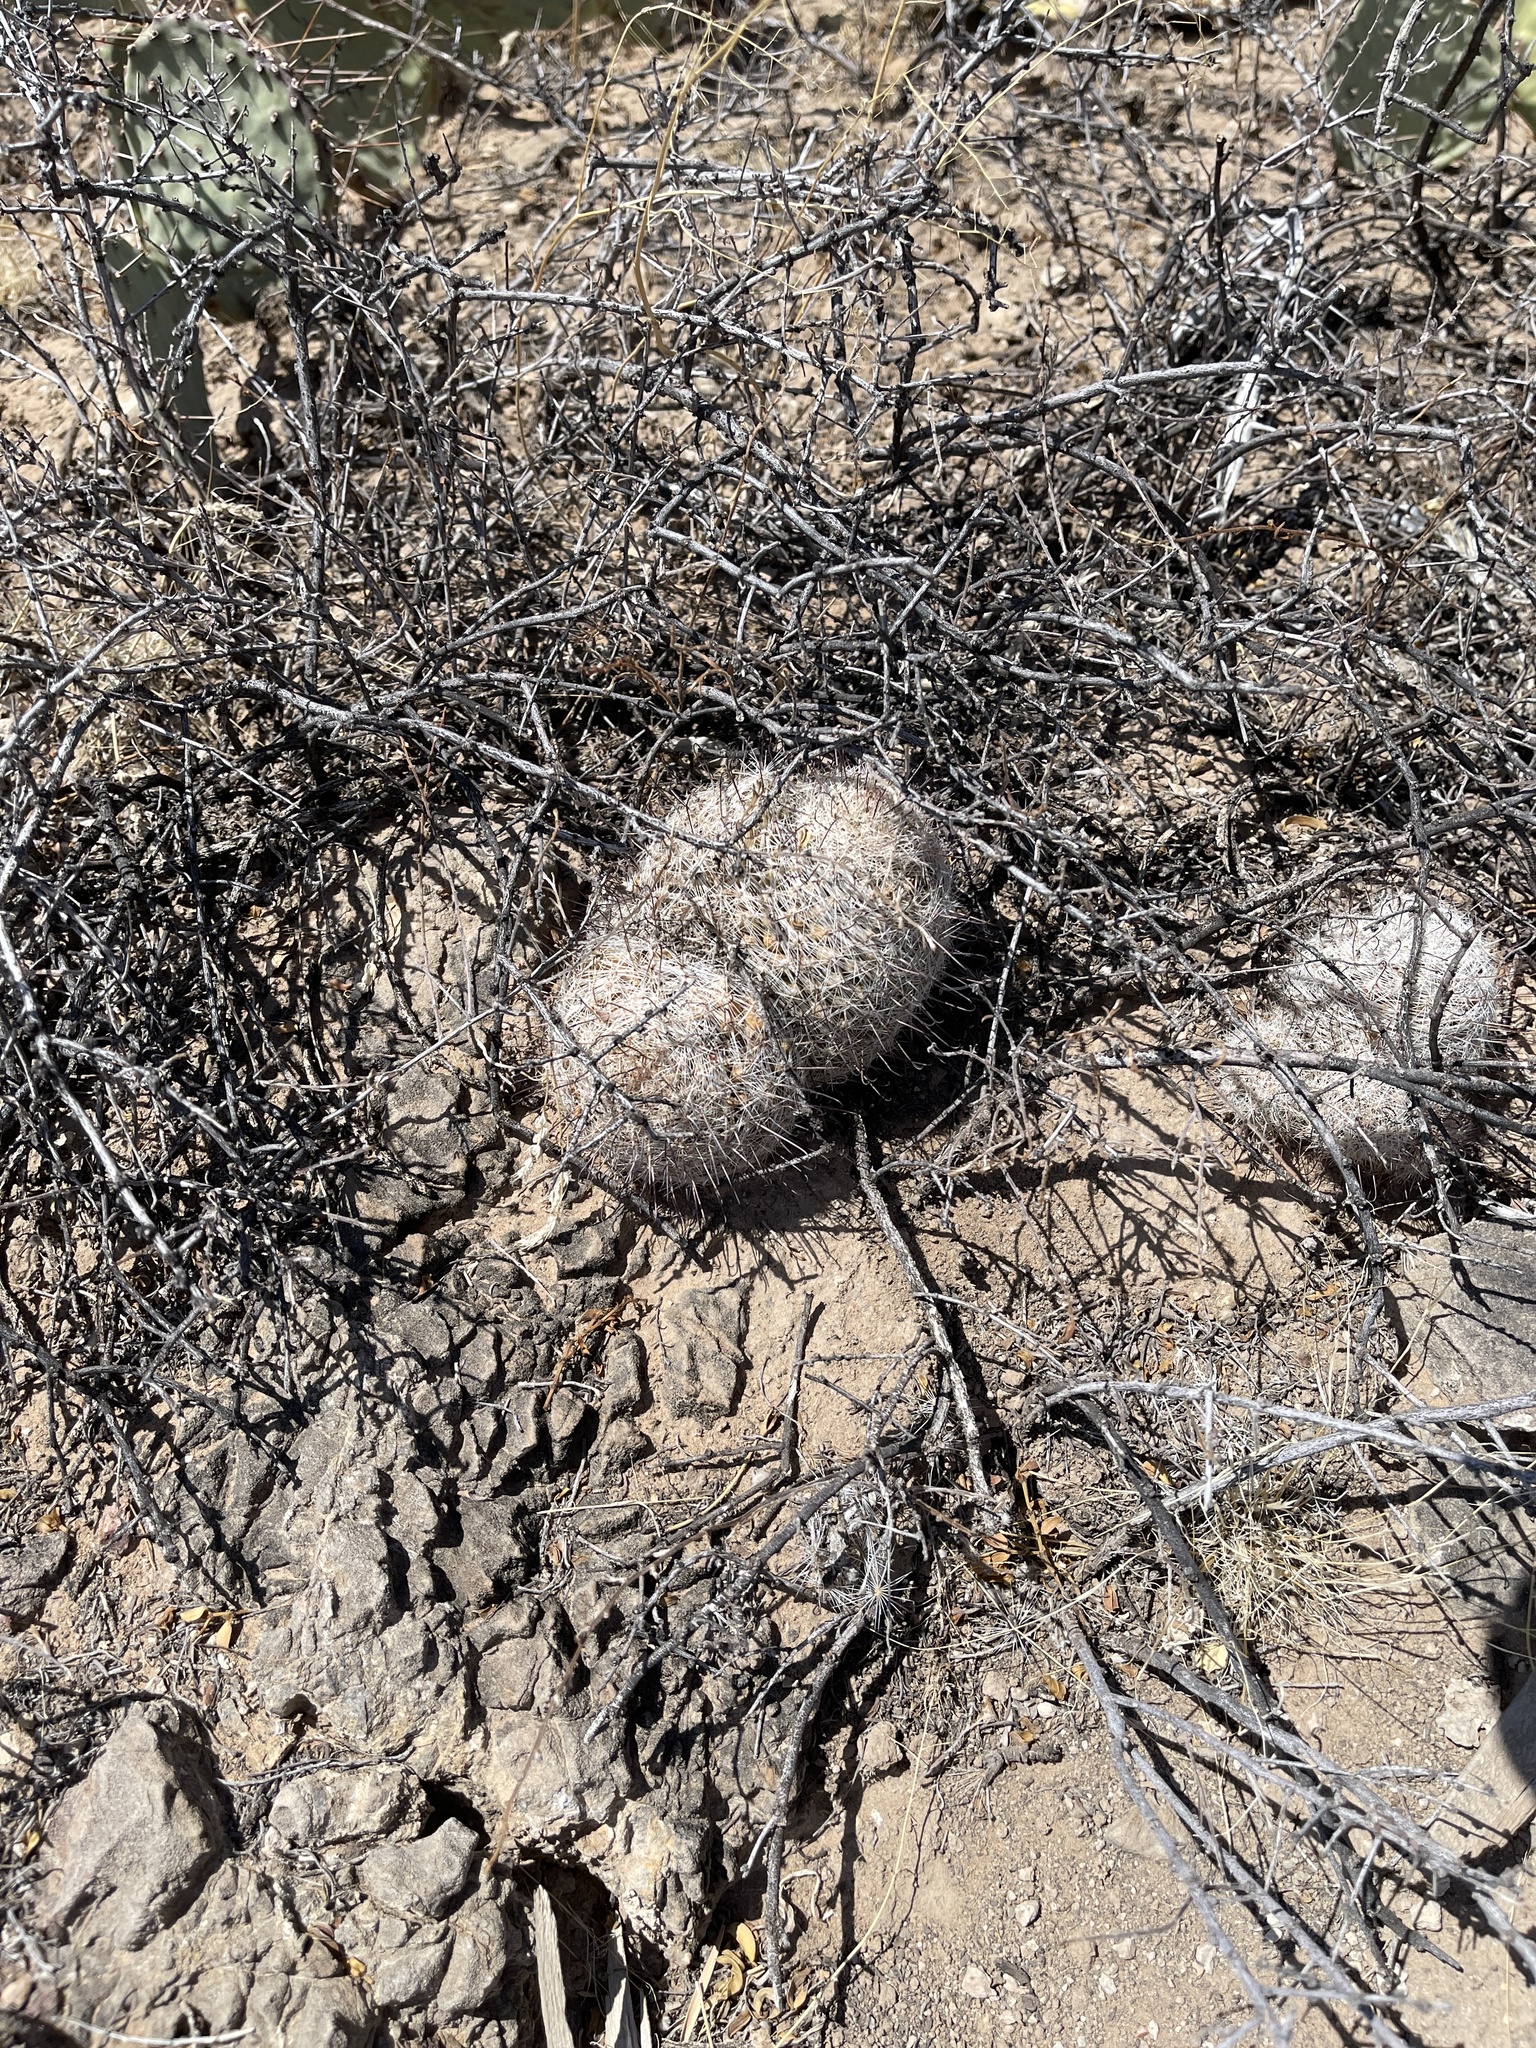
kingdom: Plantae
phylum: Tracheophyta
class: Magnoliopsida
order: Caryophyllales
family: Cactaceae
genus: Cochemiea
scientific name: Cochemiea grahamii
